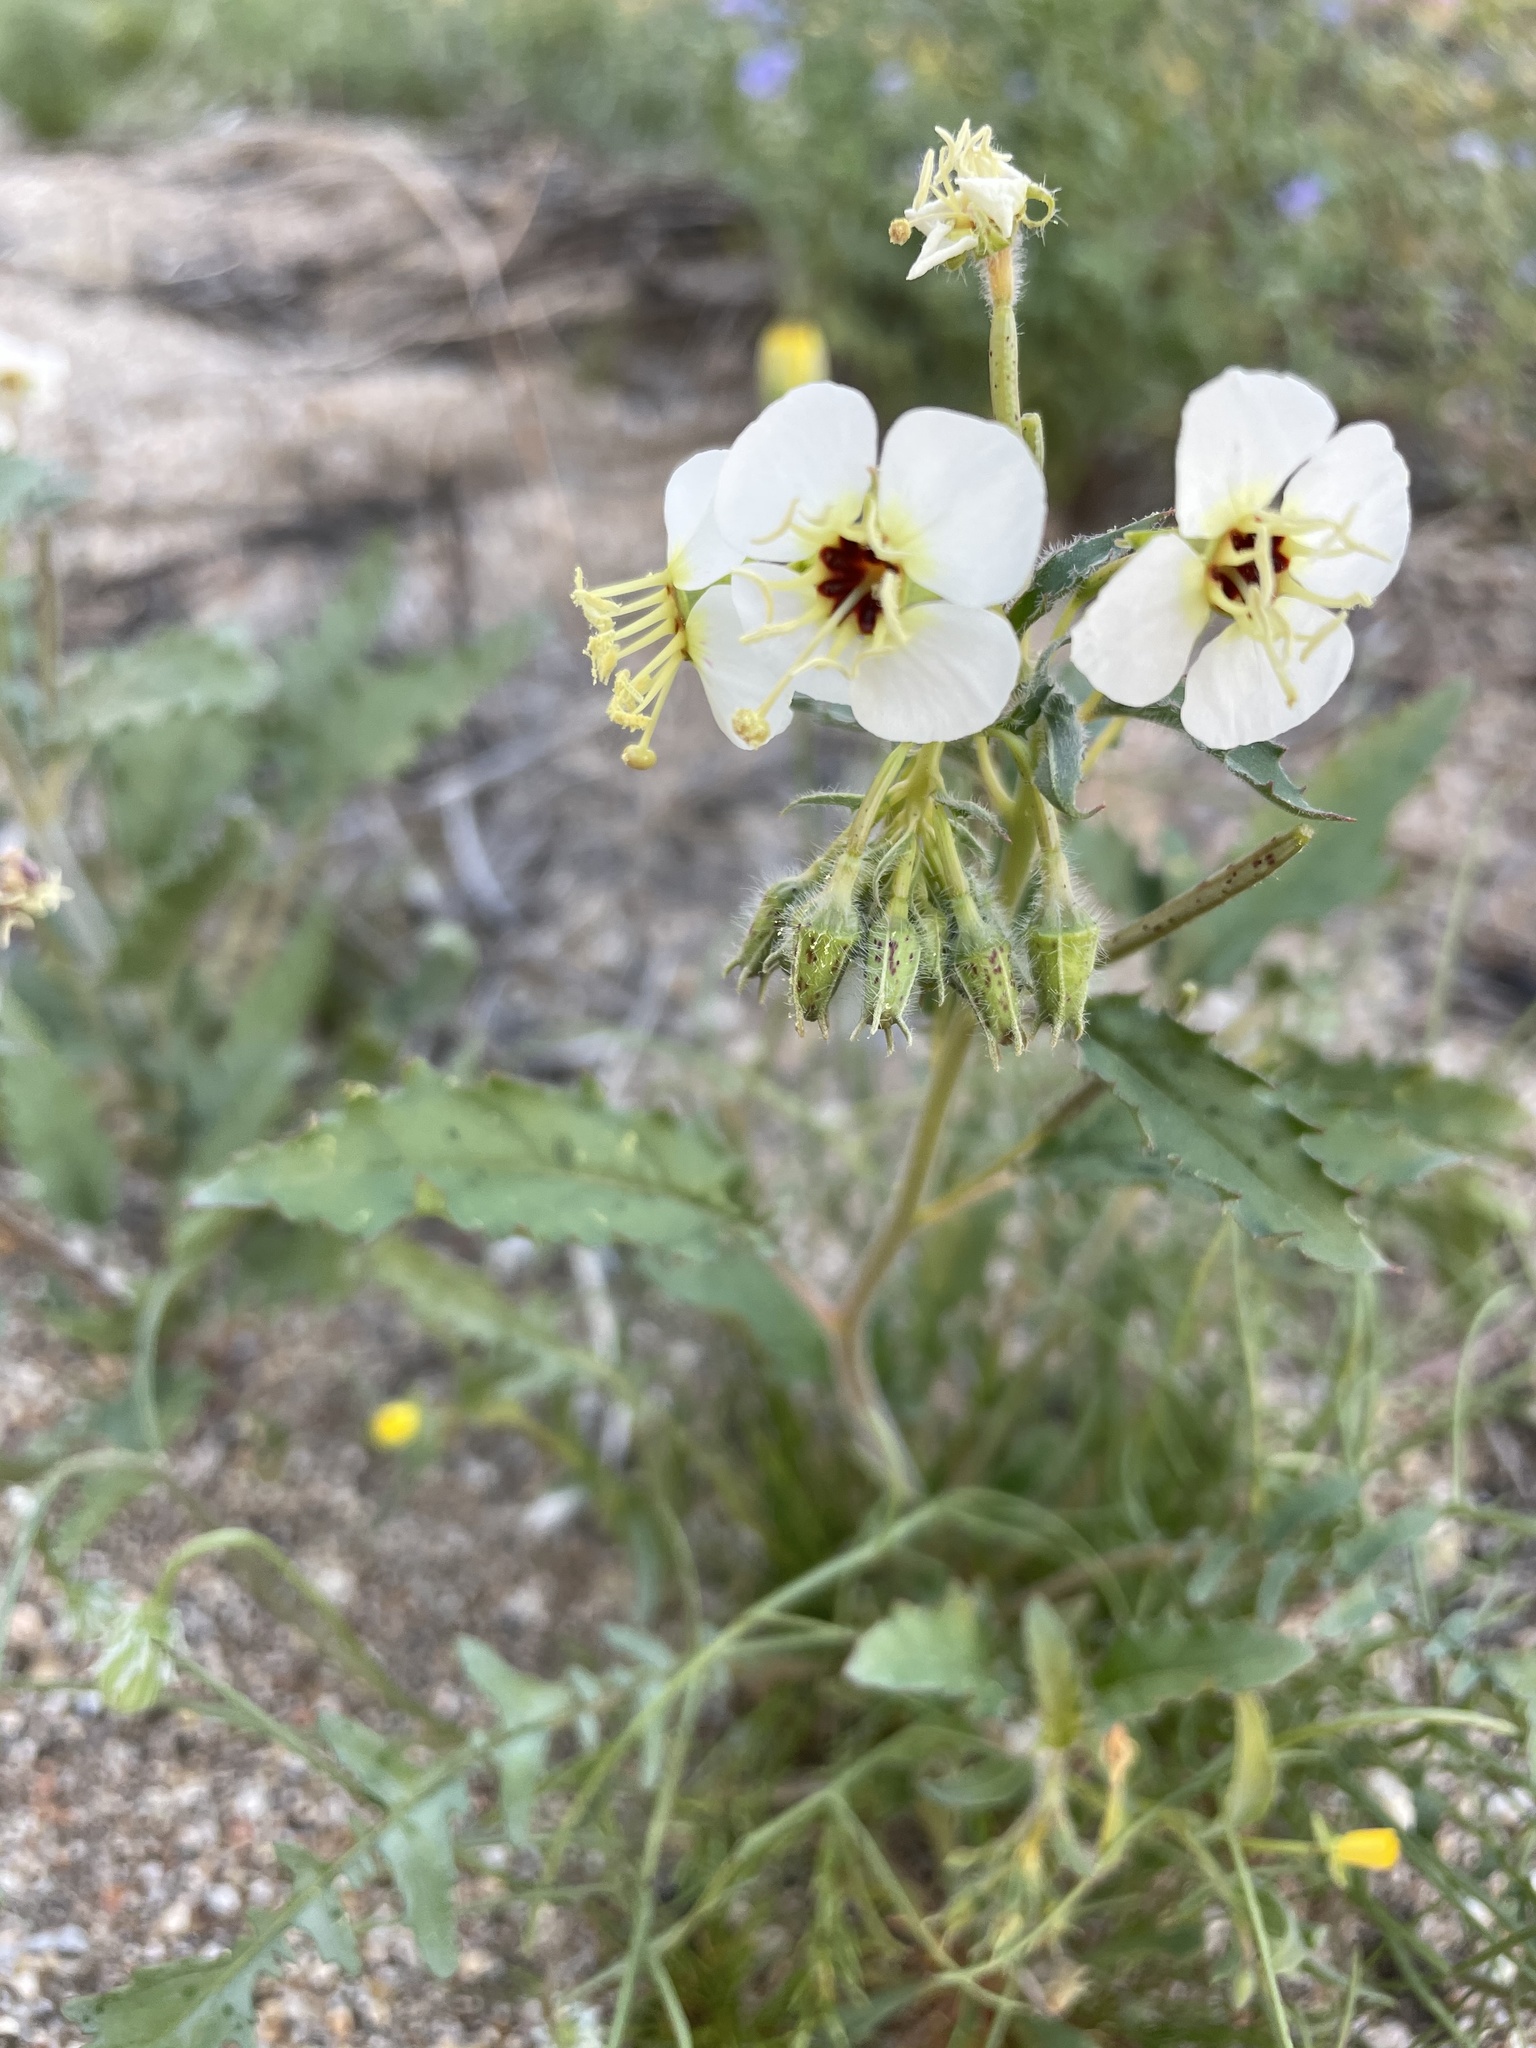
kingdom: Plantae
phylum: Tracheophyta
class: Magnoliopsida
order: Myrtales
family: Onagraceae
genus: Chylismia
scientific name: Chylismia claviformis
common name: Browneyes
